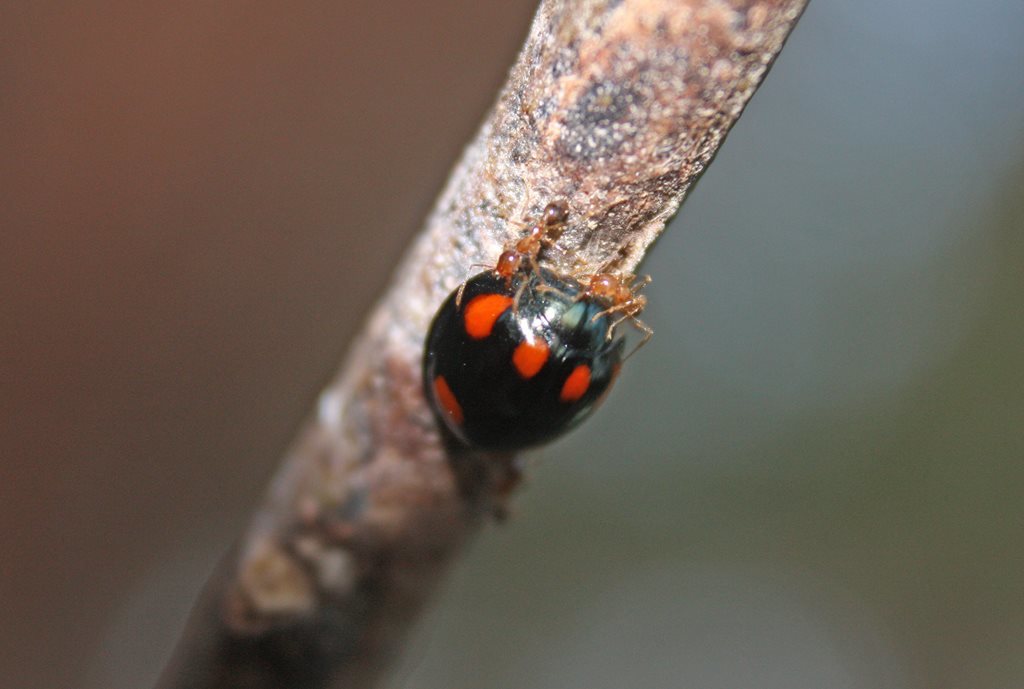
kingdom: Animalia
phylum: Arthropoda
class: Insecta
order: Coleoptera
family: Coccinellidae
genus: Orcus
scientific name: Orcus australasiae
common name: Lady beetle
